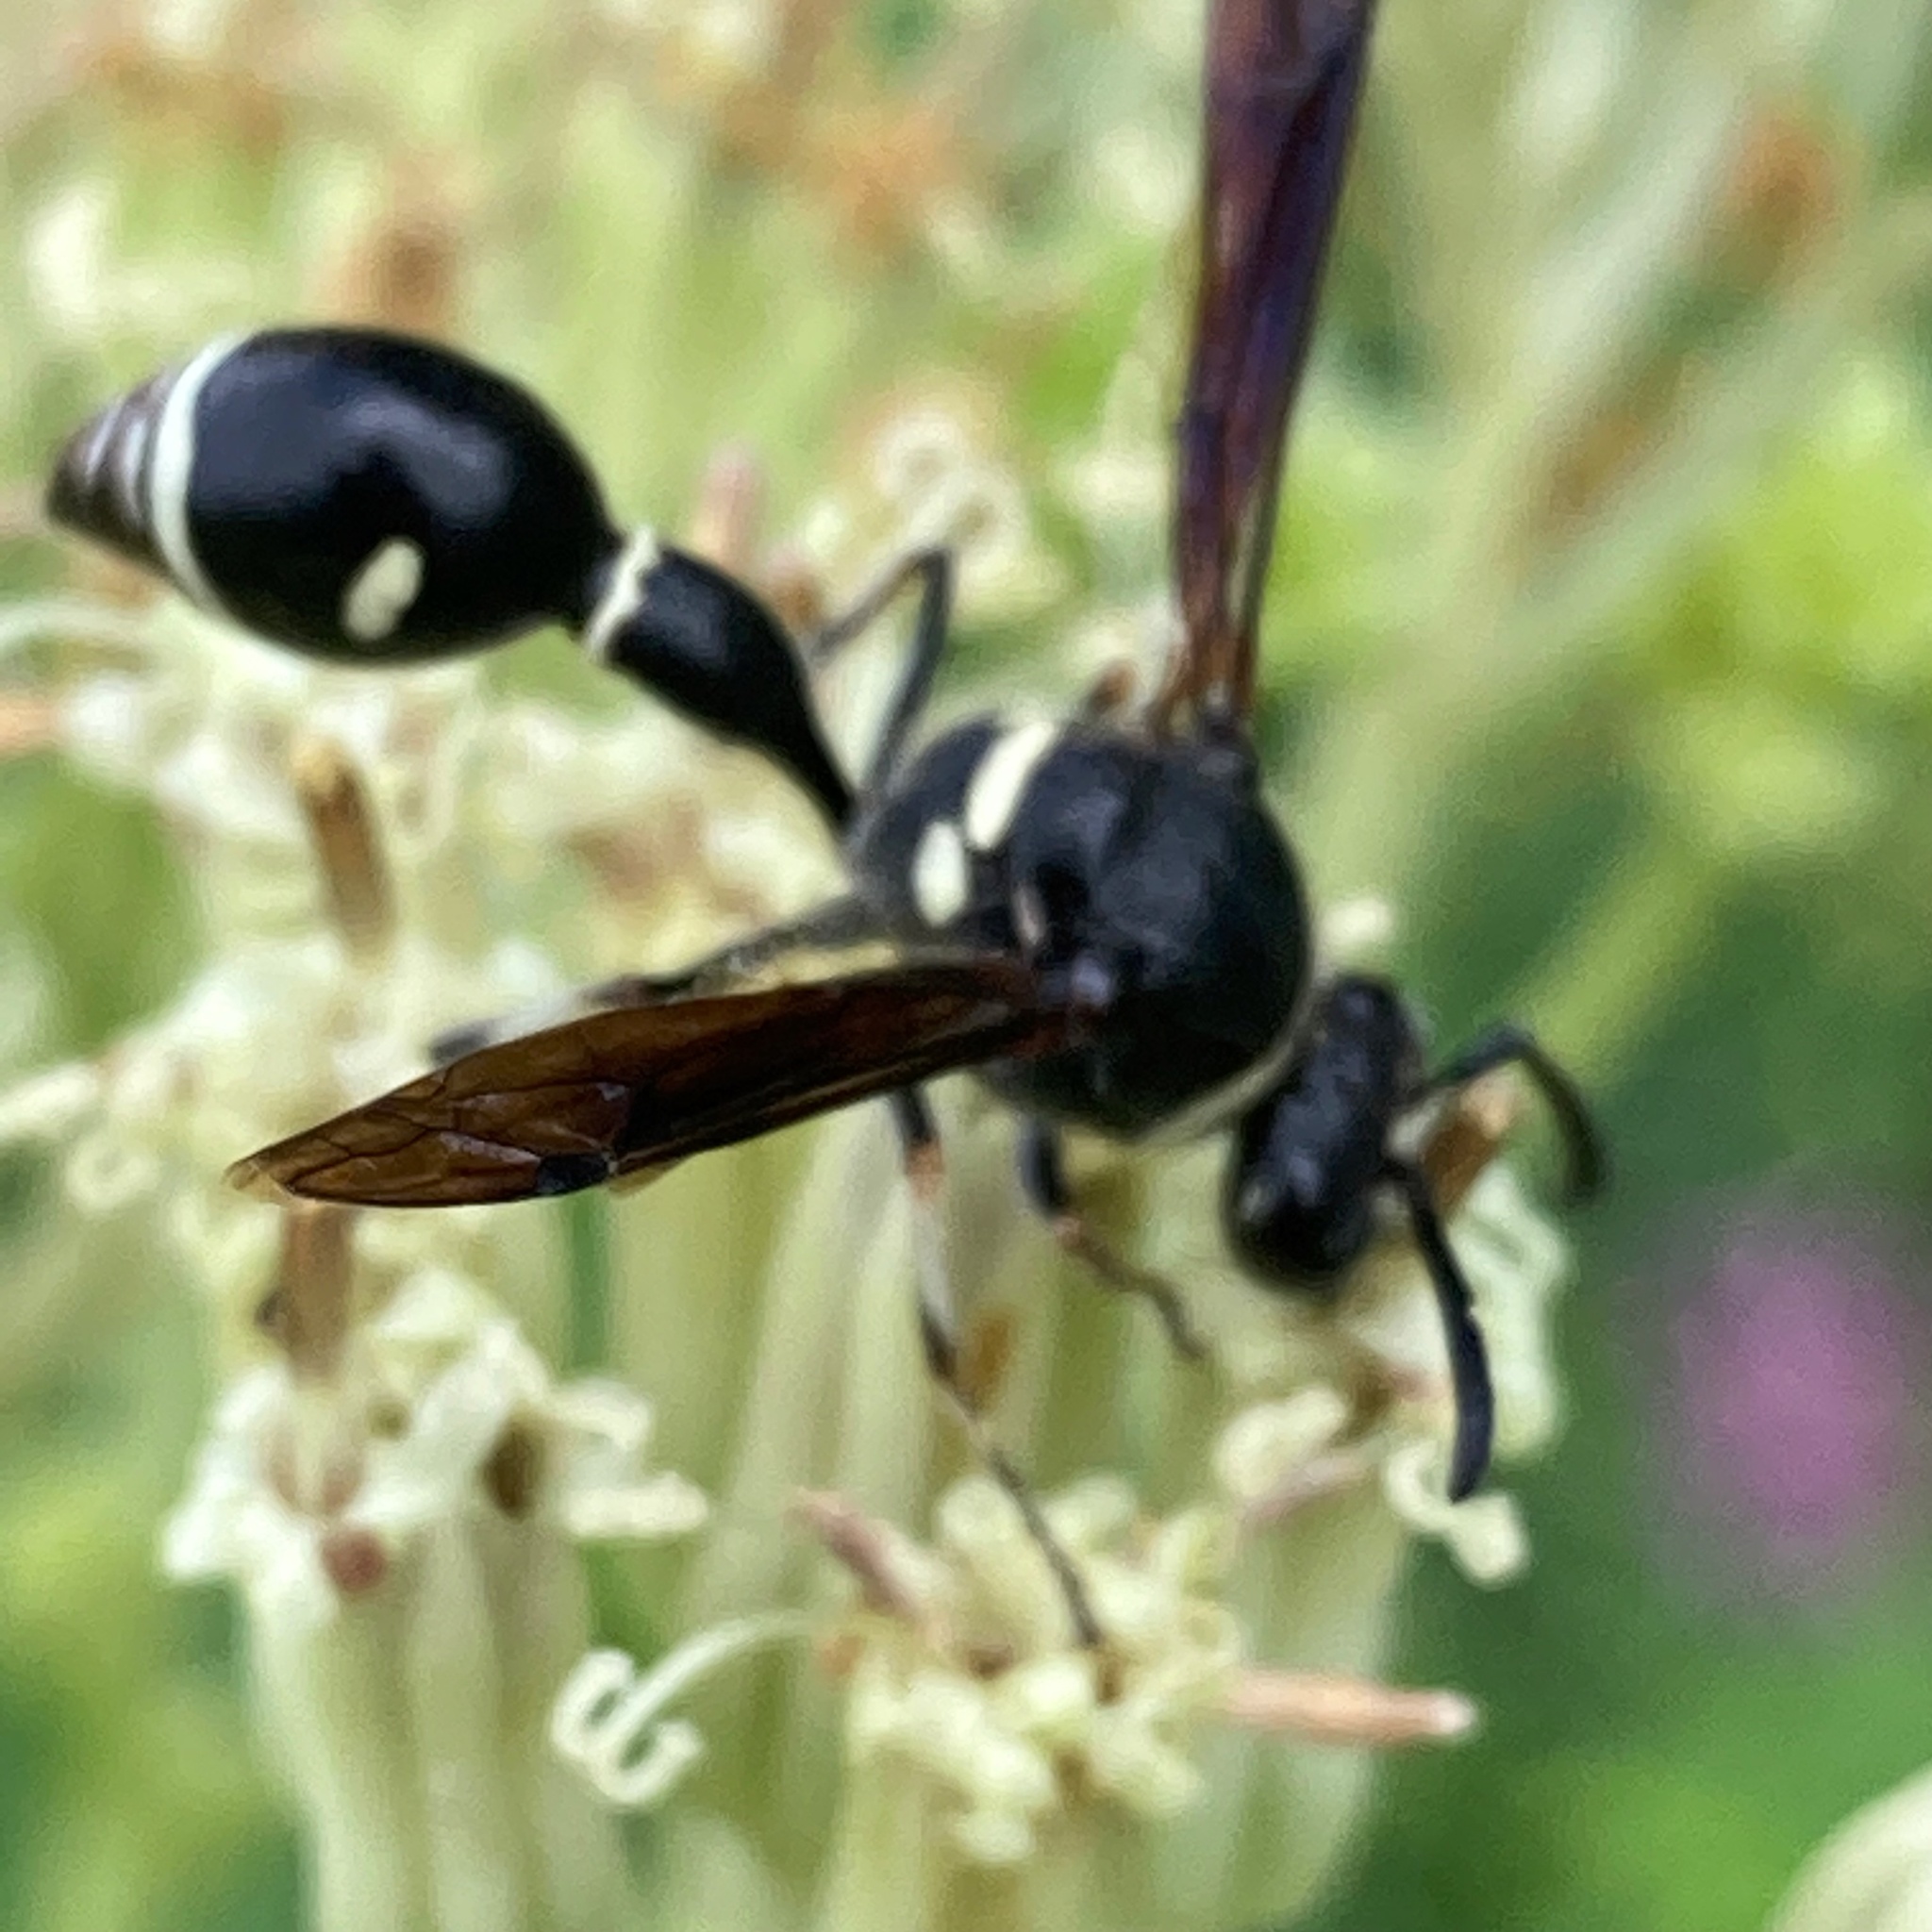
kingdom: Animalia
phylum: Arthropoda
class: Insecta
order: Hymenoptera
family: Vespidae
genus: Eumenes
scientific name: Eumenes fraternus
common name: Fraternal potter wasp
